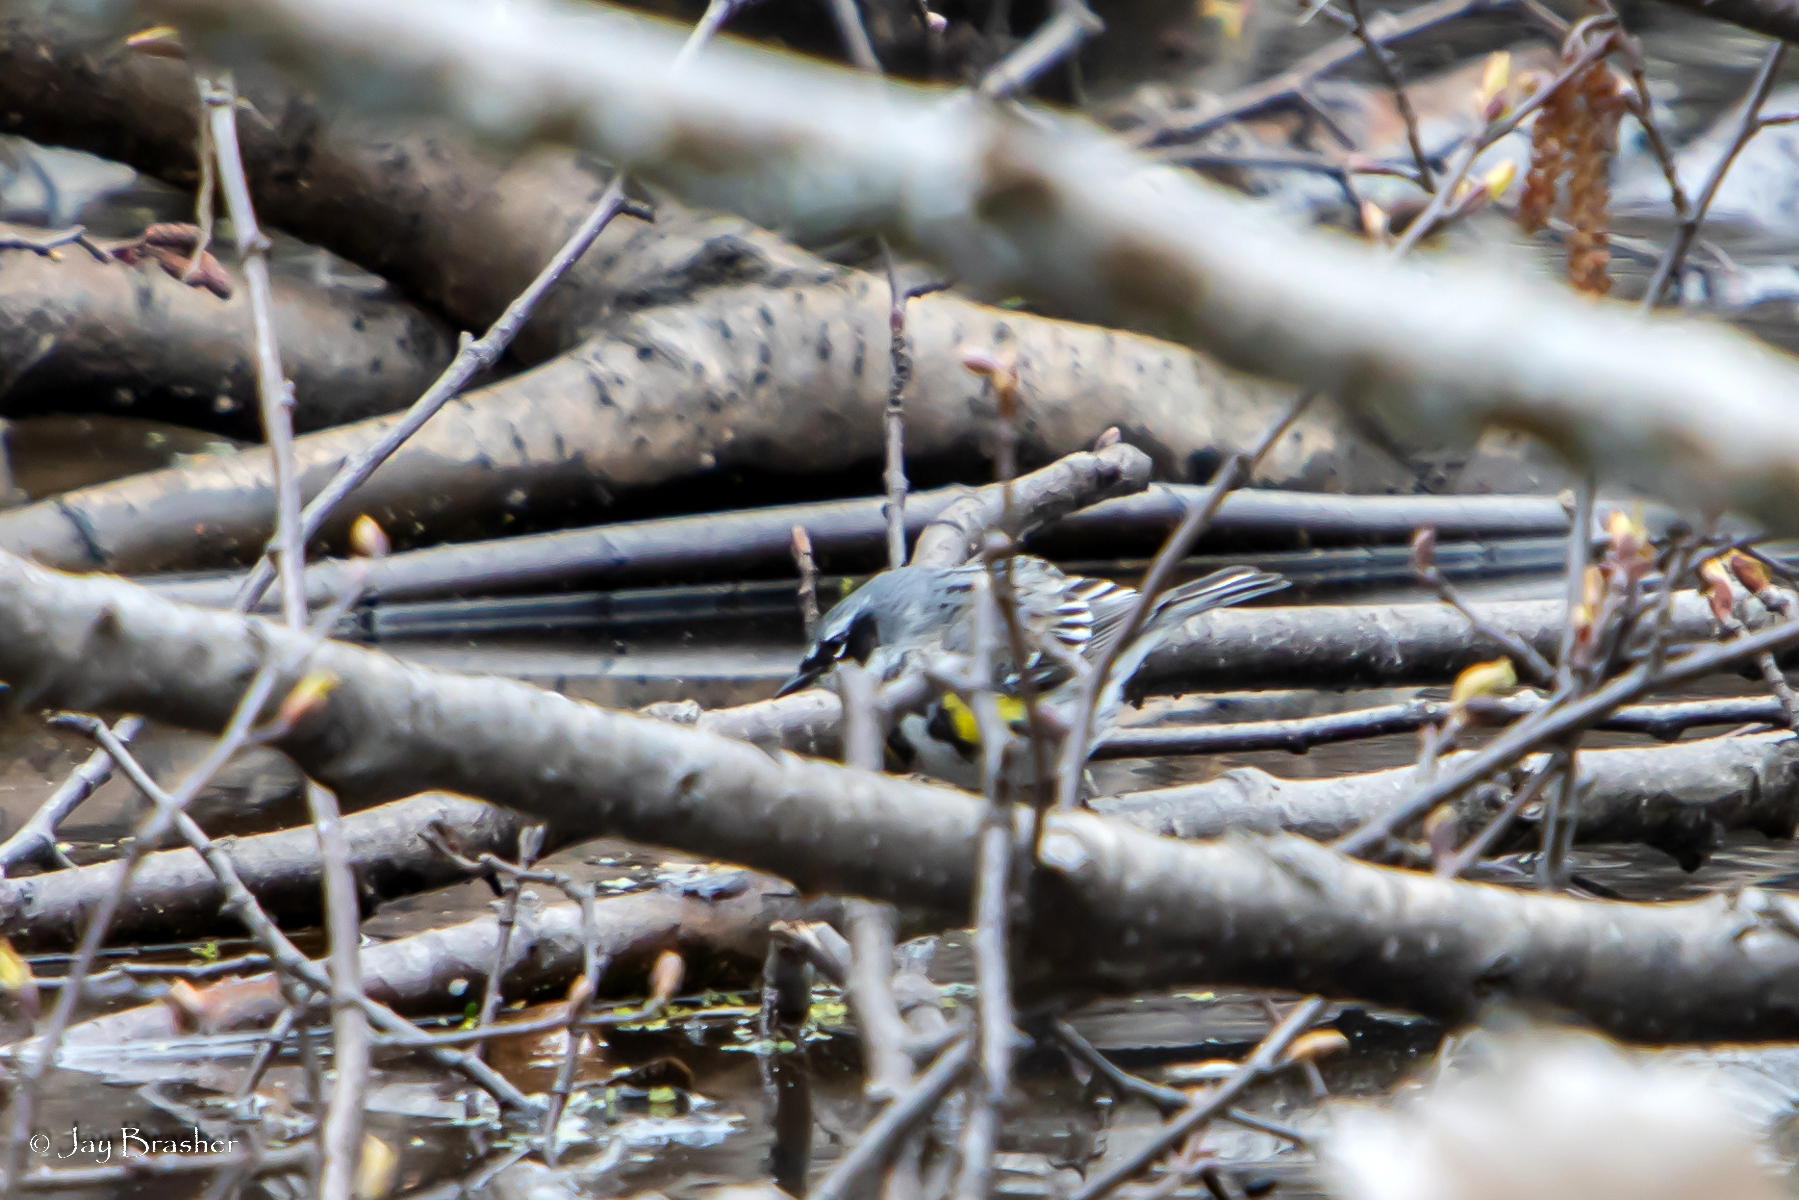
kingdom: Animalia
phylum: Chordata
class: Aves
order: Passeriformes
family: Parulidae
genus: Setophaga
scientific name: Setophaga coronata
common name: Myrtle warbler
